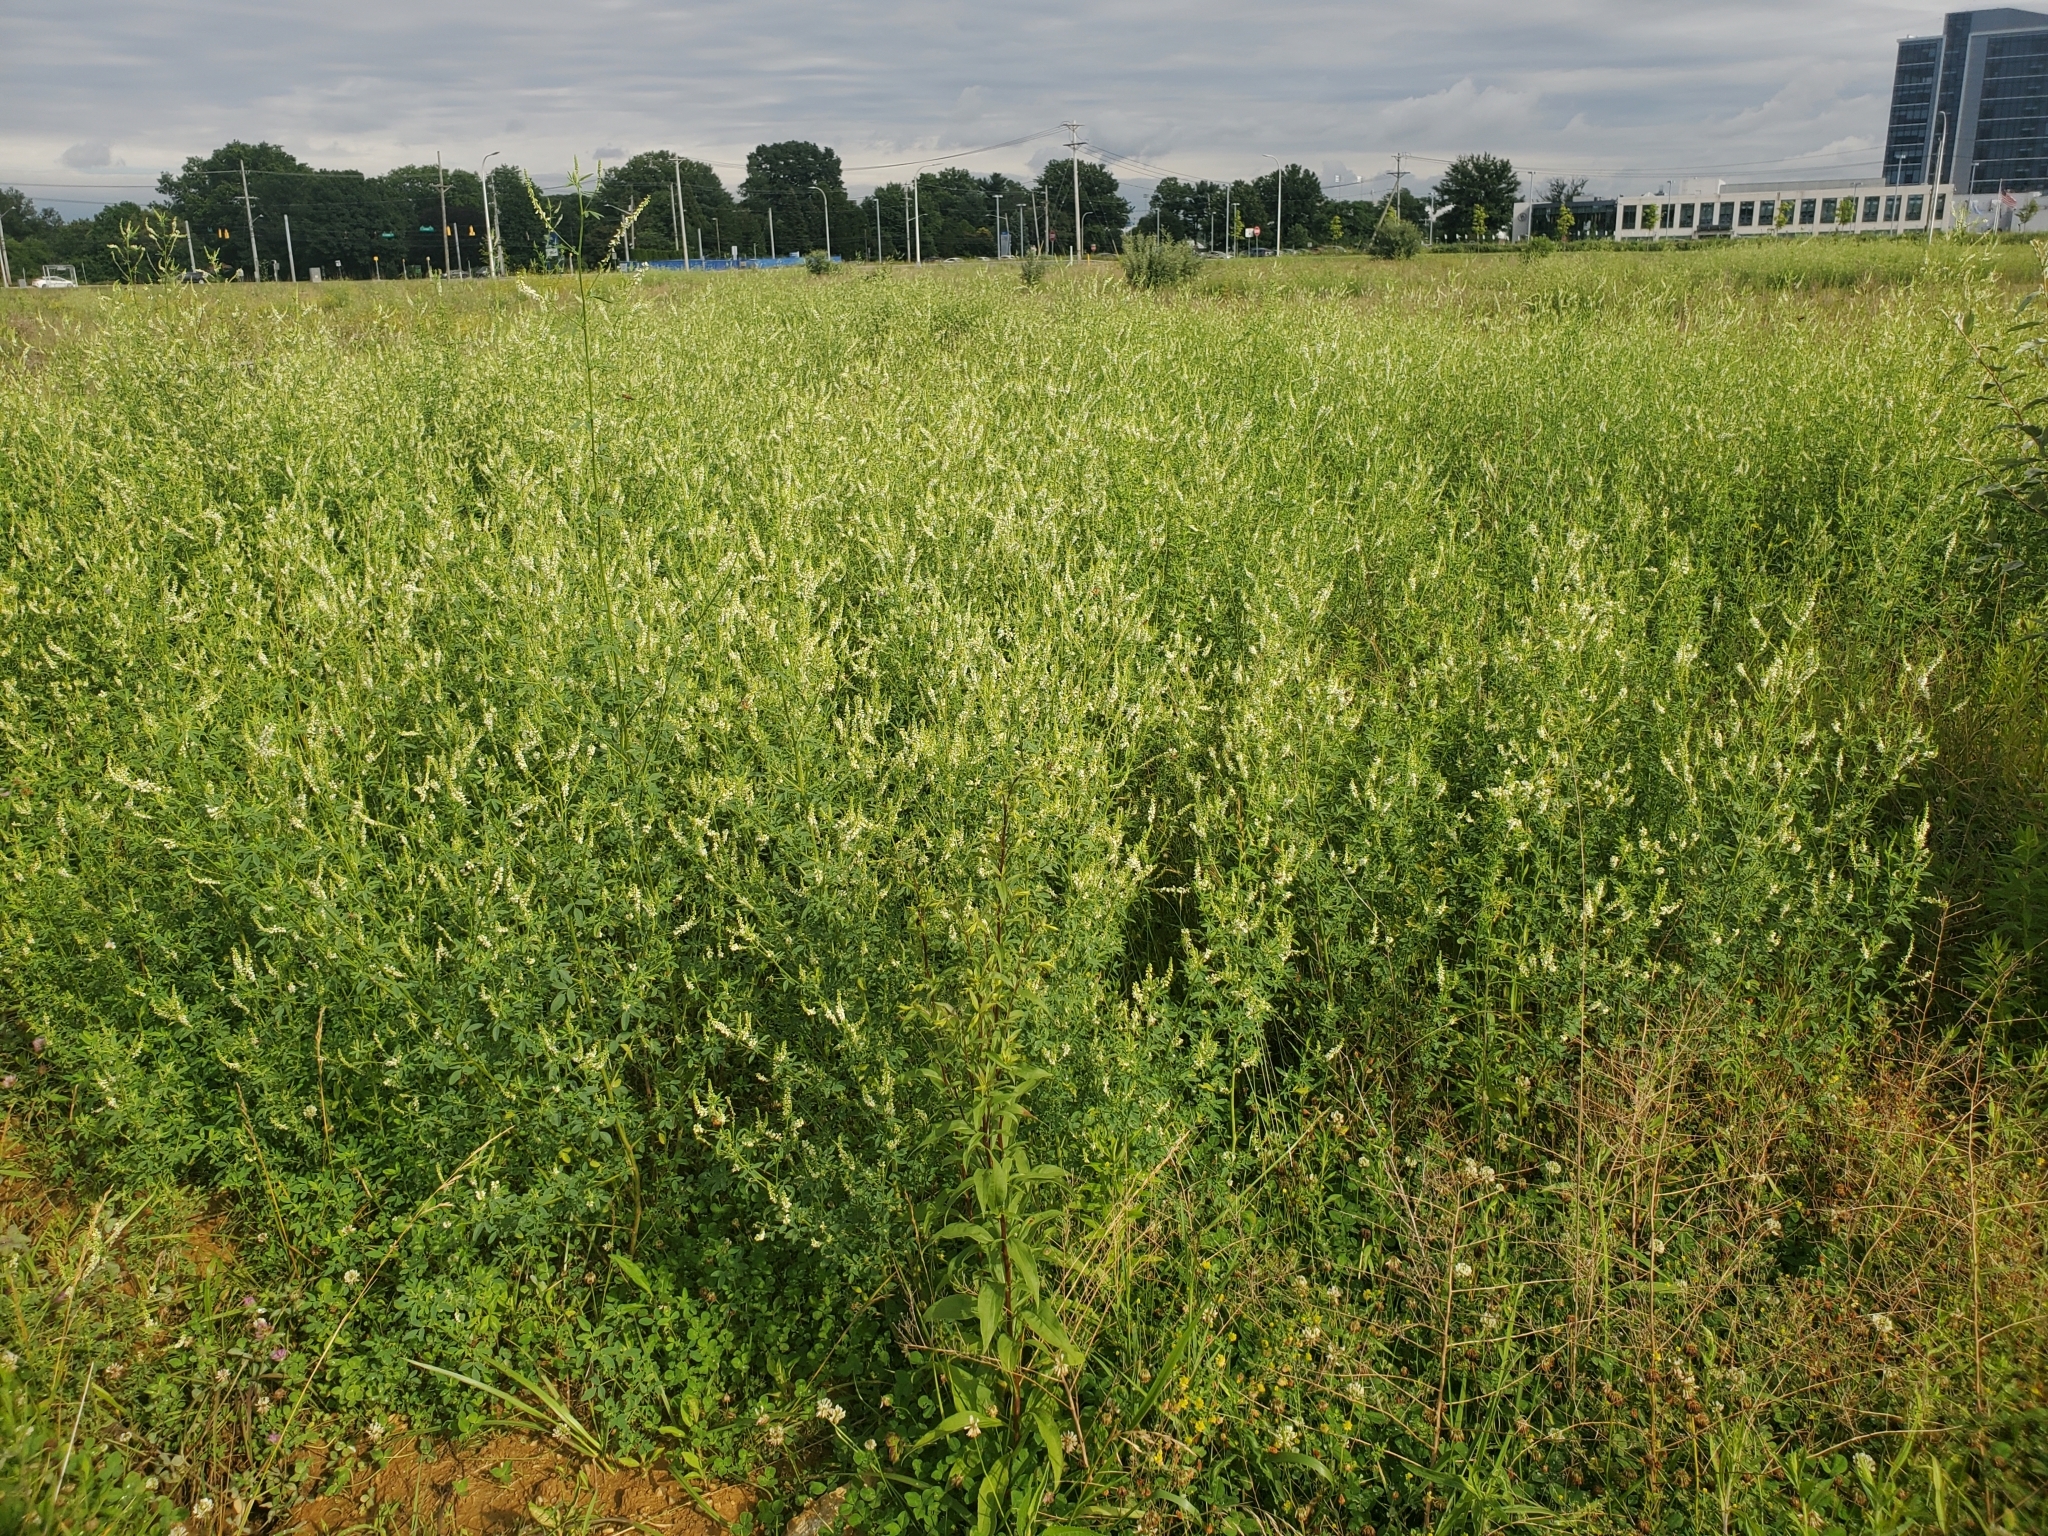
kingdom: Plantae
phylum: Tracheophyta
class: Magnoliopsida
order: Fabales
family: Fabaceae
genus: Melilotus
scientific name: Melilotus albus
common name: White melilot
